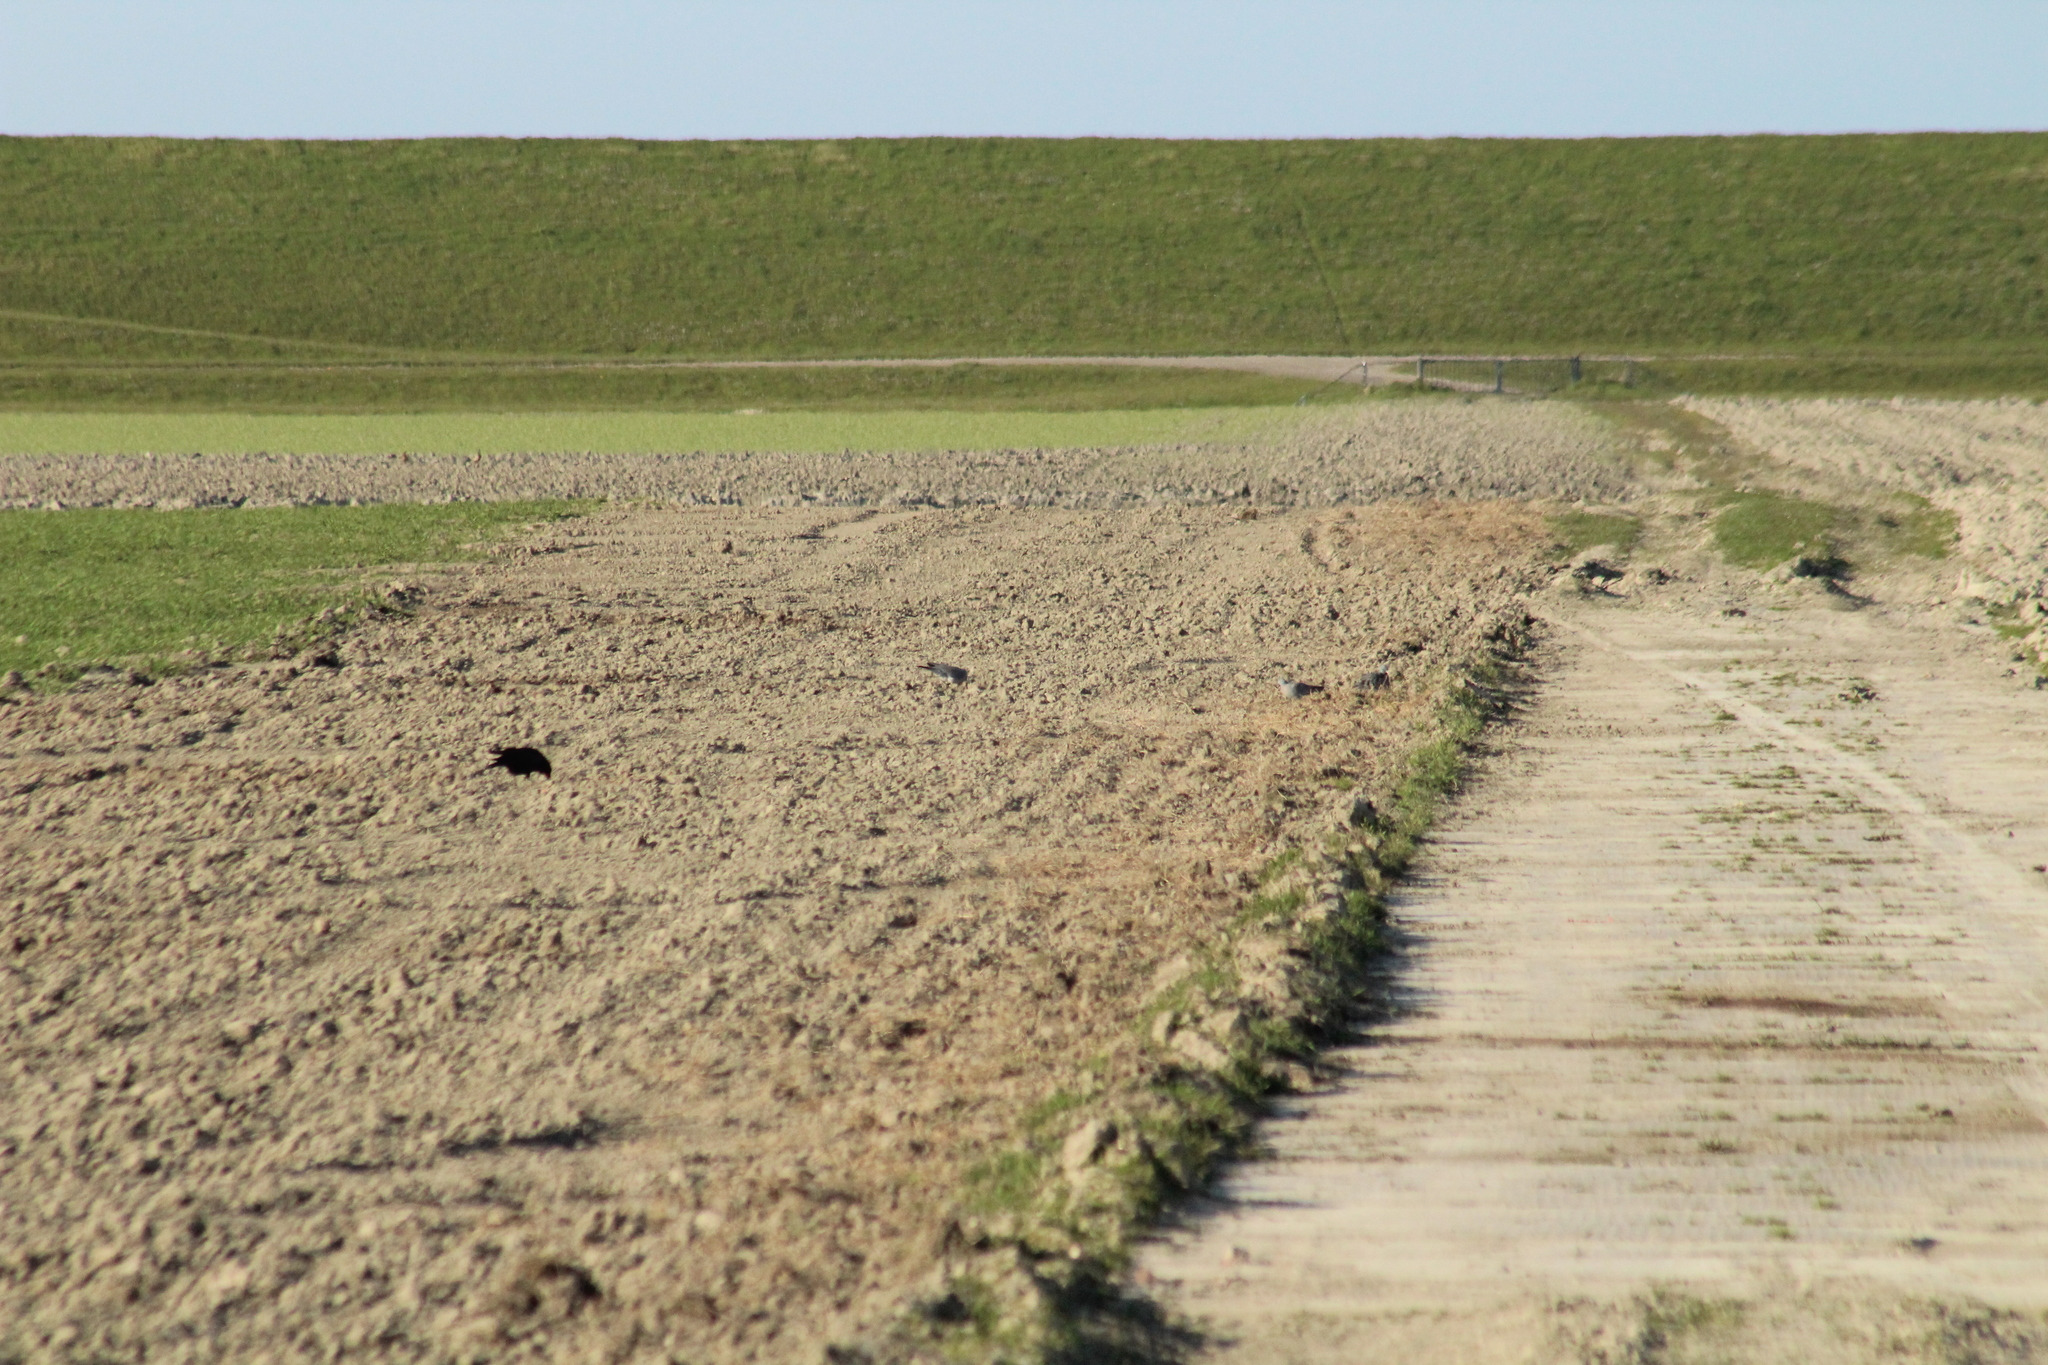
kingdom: Animalia
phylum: Chordata
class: Aves
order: Columbiformes
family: Columbidae
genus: Columba
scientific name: Columba palumbus
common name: Common wood pigeon
